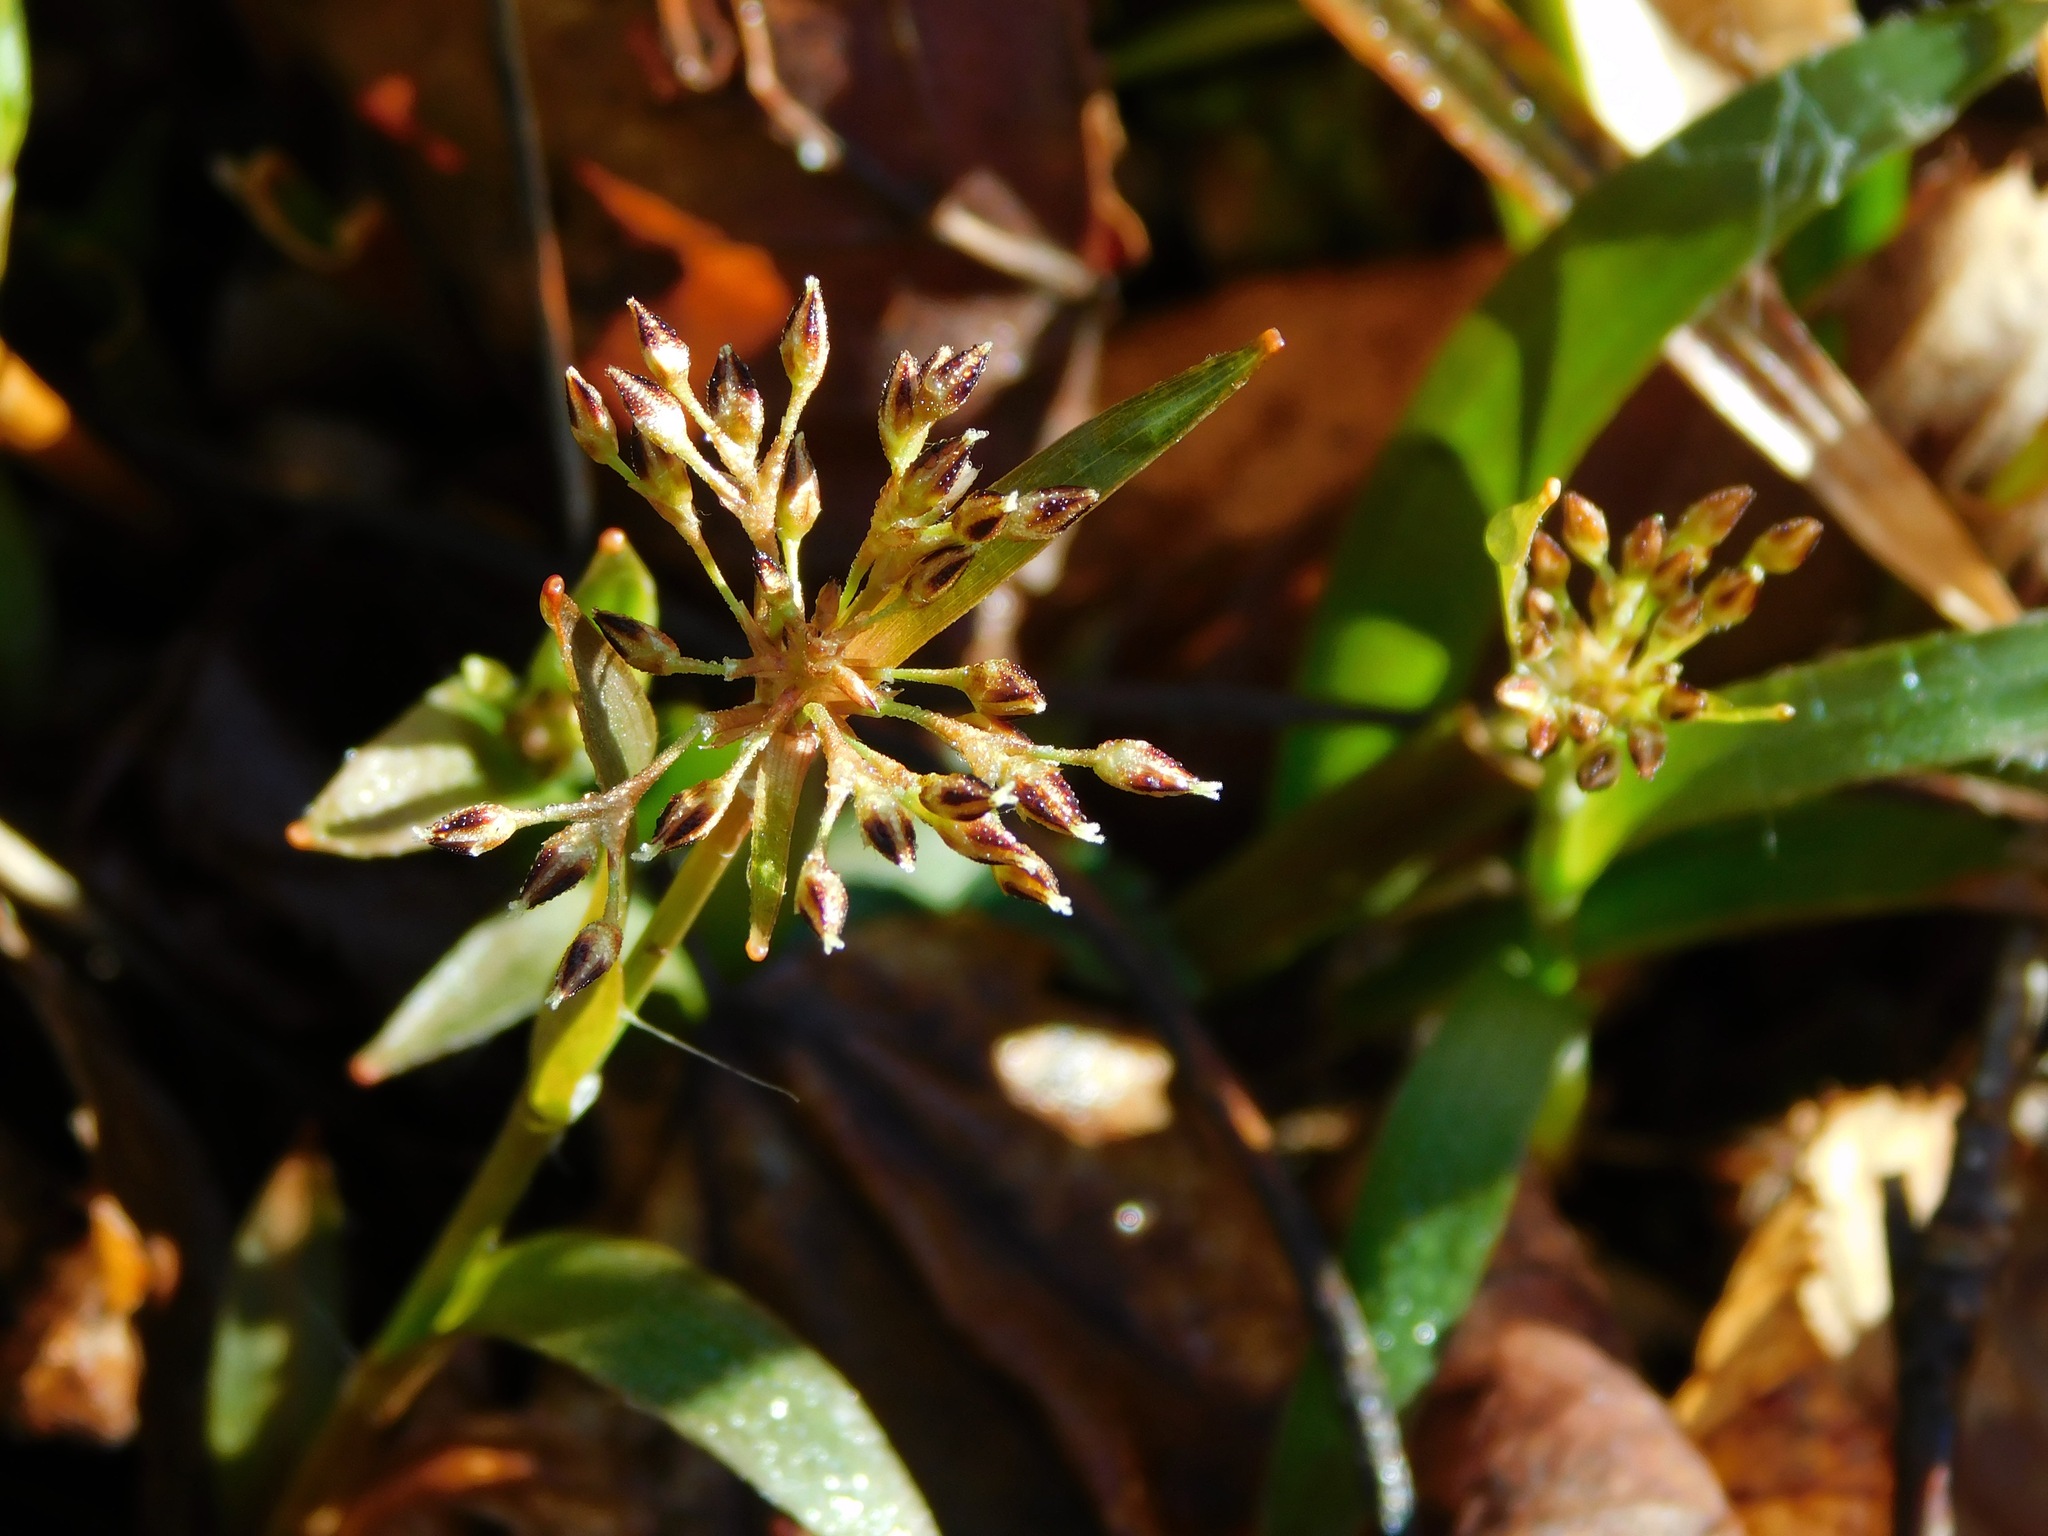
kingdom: Plantae
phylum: Tracheophyta
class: Liliopsida
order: Poales
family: Juncaceae
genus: Luzula
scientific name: Luzula acuminata
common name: Hairy woodrush
